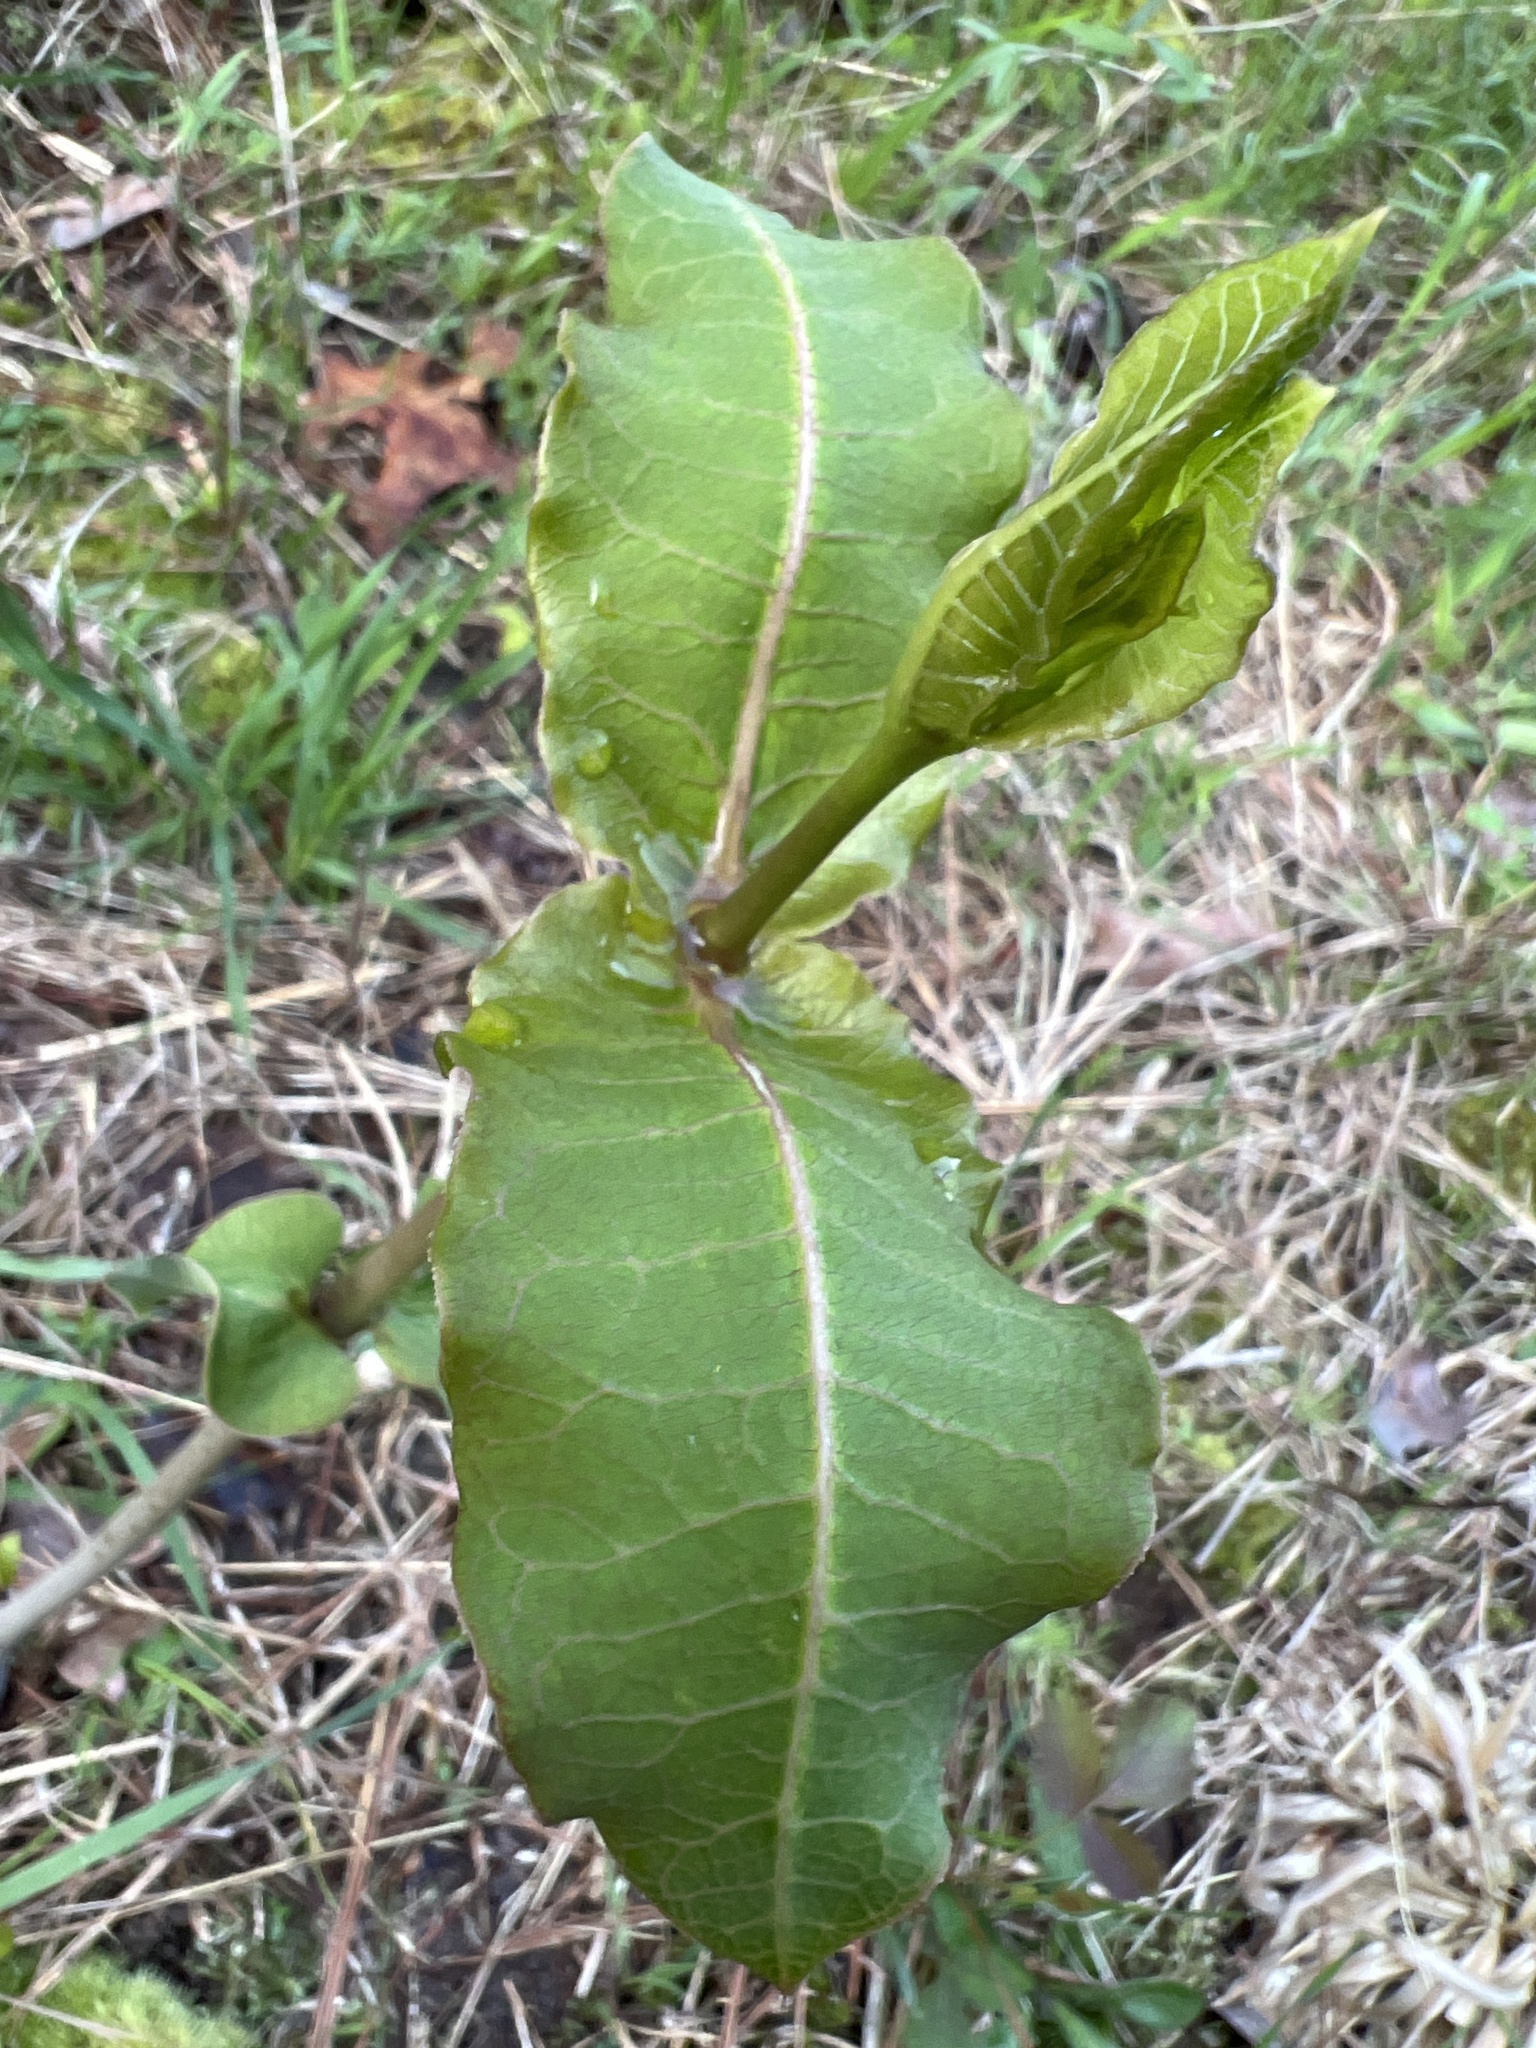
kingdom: Plantae
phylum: Tracheophyta
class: Magnoliopsida
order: Gentianales
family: Apocynaceae
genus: Asclepias
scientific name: Asclepias amplexicaulis
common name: Blunt-leaf milkweed
